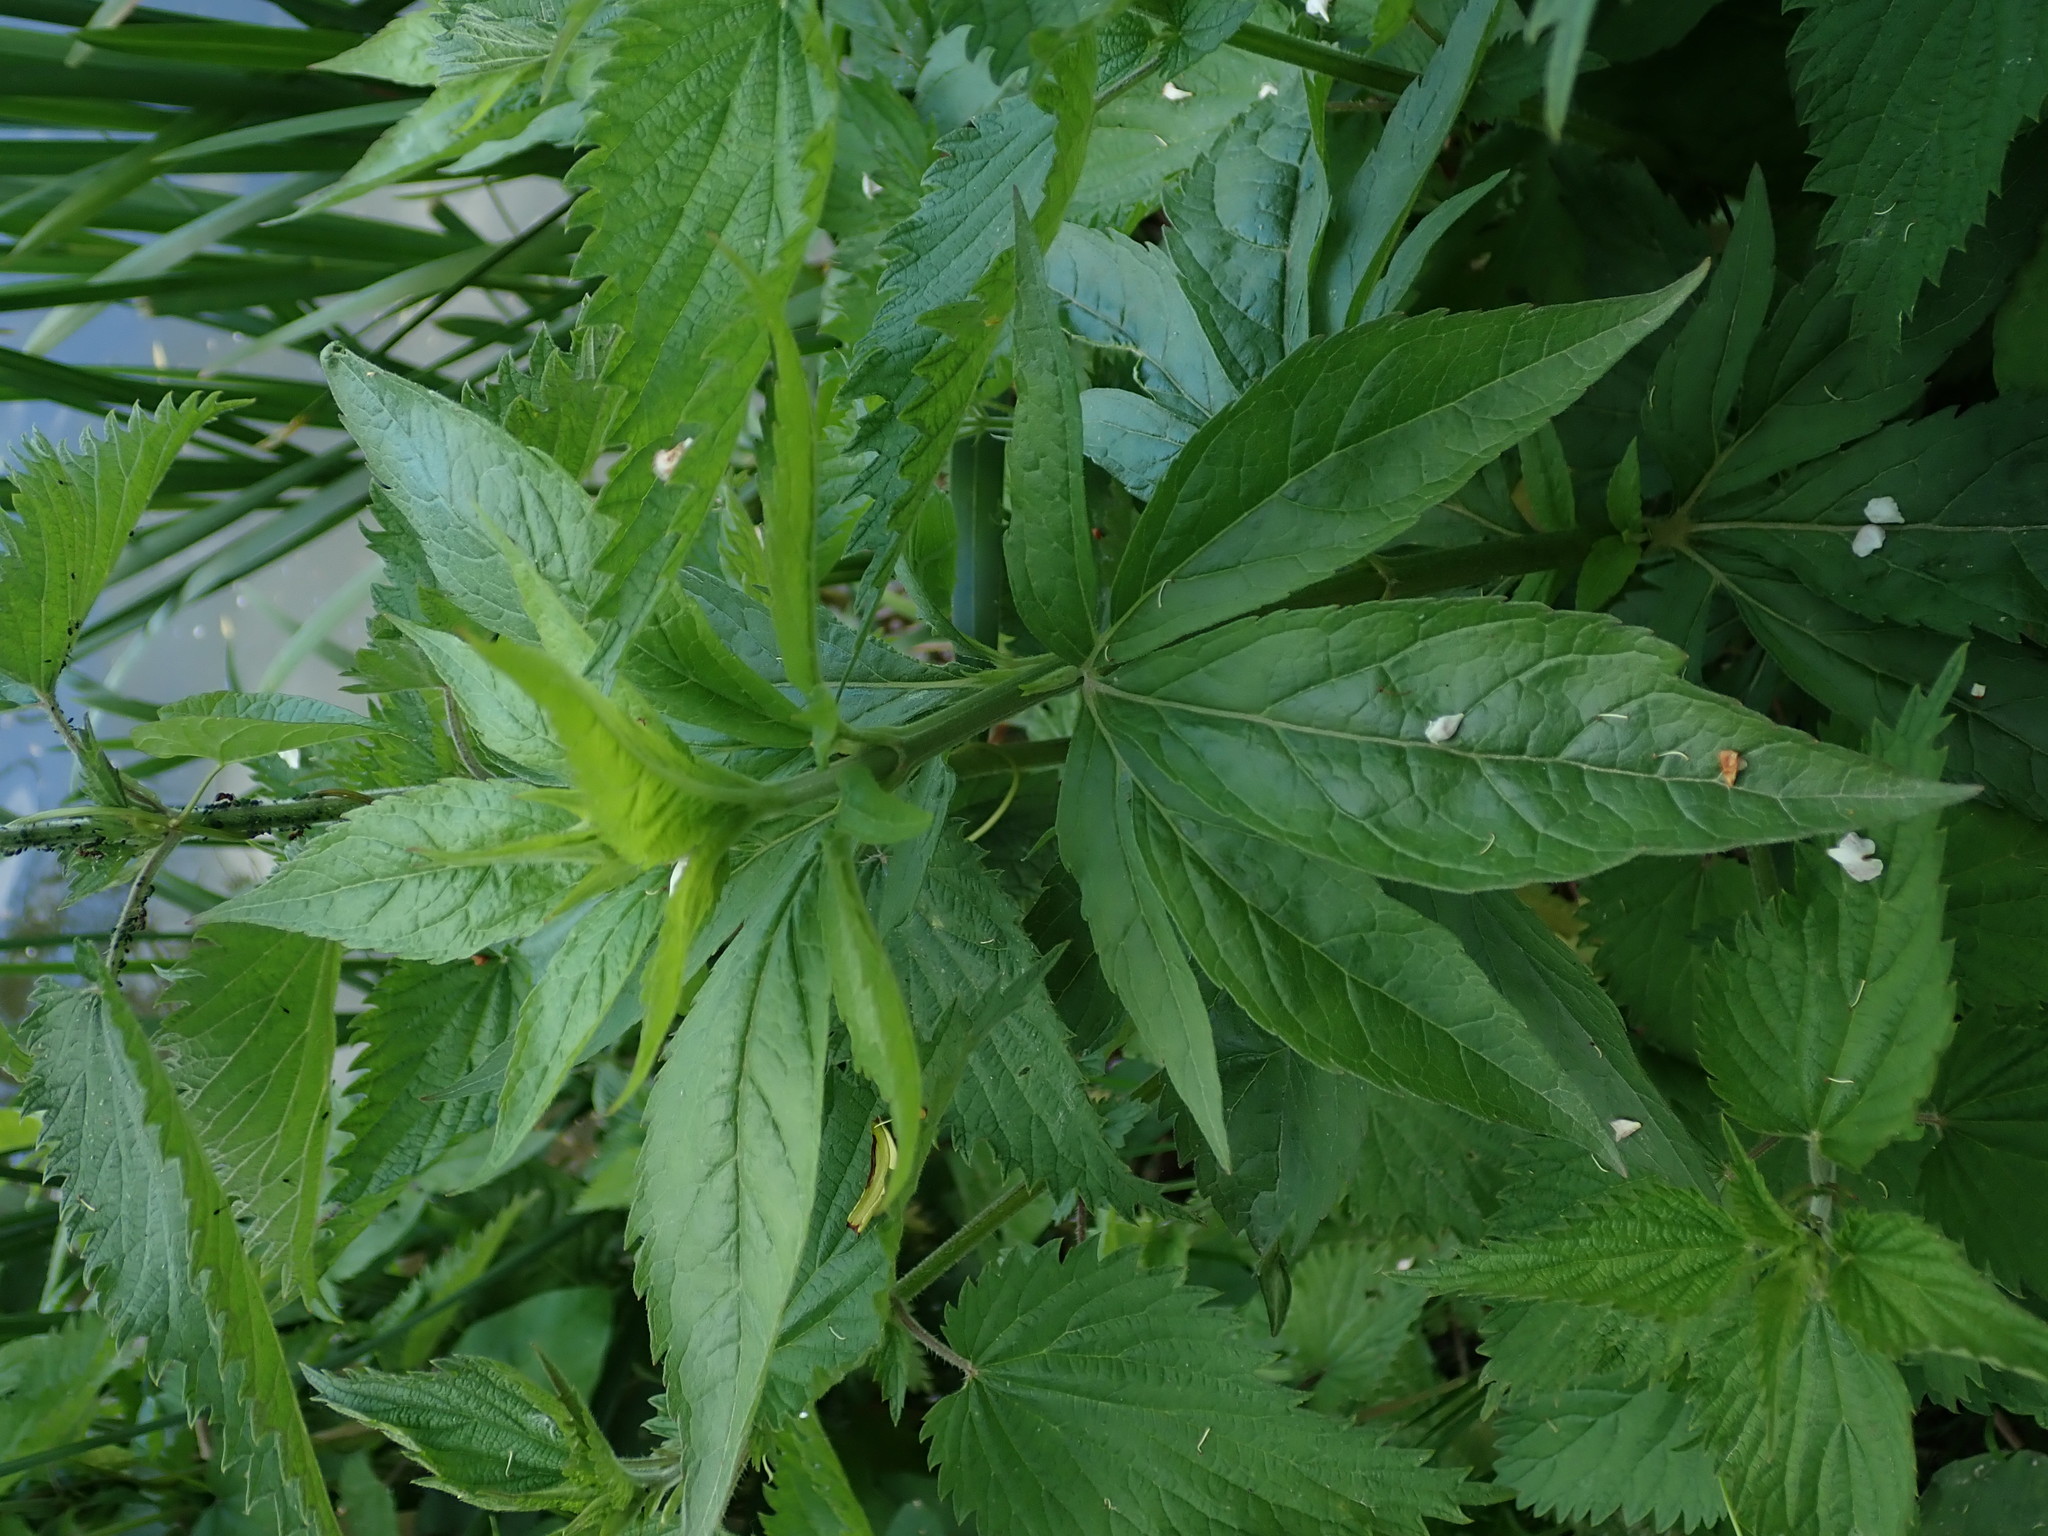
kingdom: Plantae
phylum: Tracheophyta
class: Magnoliopsida
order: Asterales
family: Asteraceae
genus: Eupatorium
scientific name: Eupatorium cannabinum
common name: Hemp-agrimony
